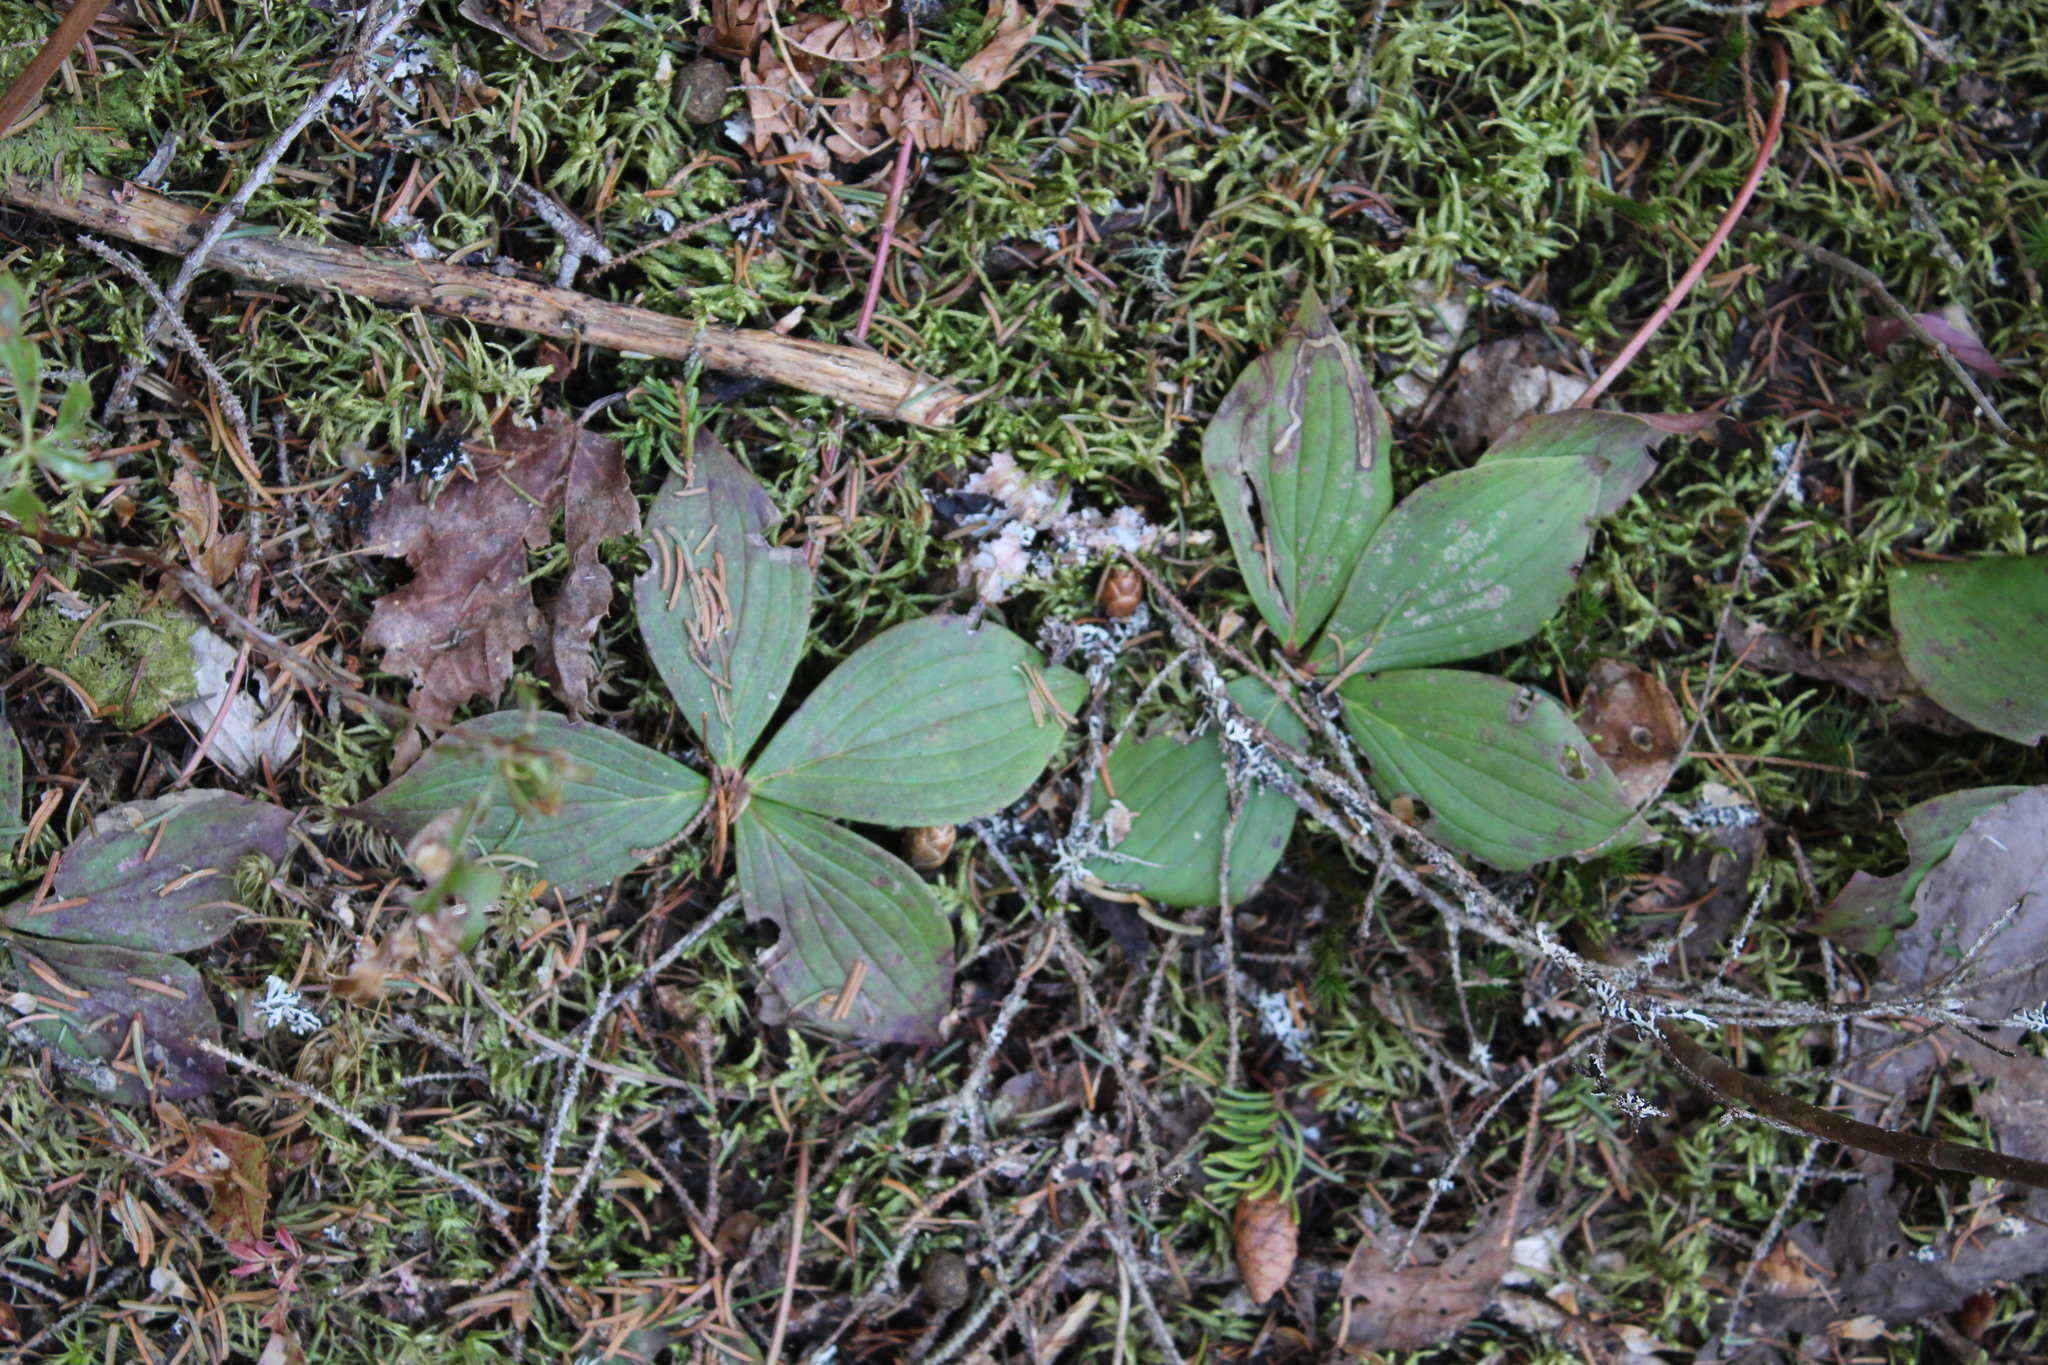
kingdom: Plantae
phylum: Tracheophyta
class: Magnoliopsida
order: Cornales
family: Cornaceae
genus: Cornus
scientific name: Cornus canadensis
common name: Creeping dogwood
